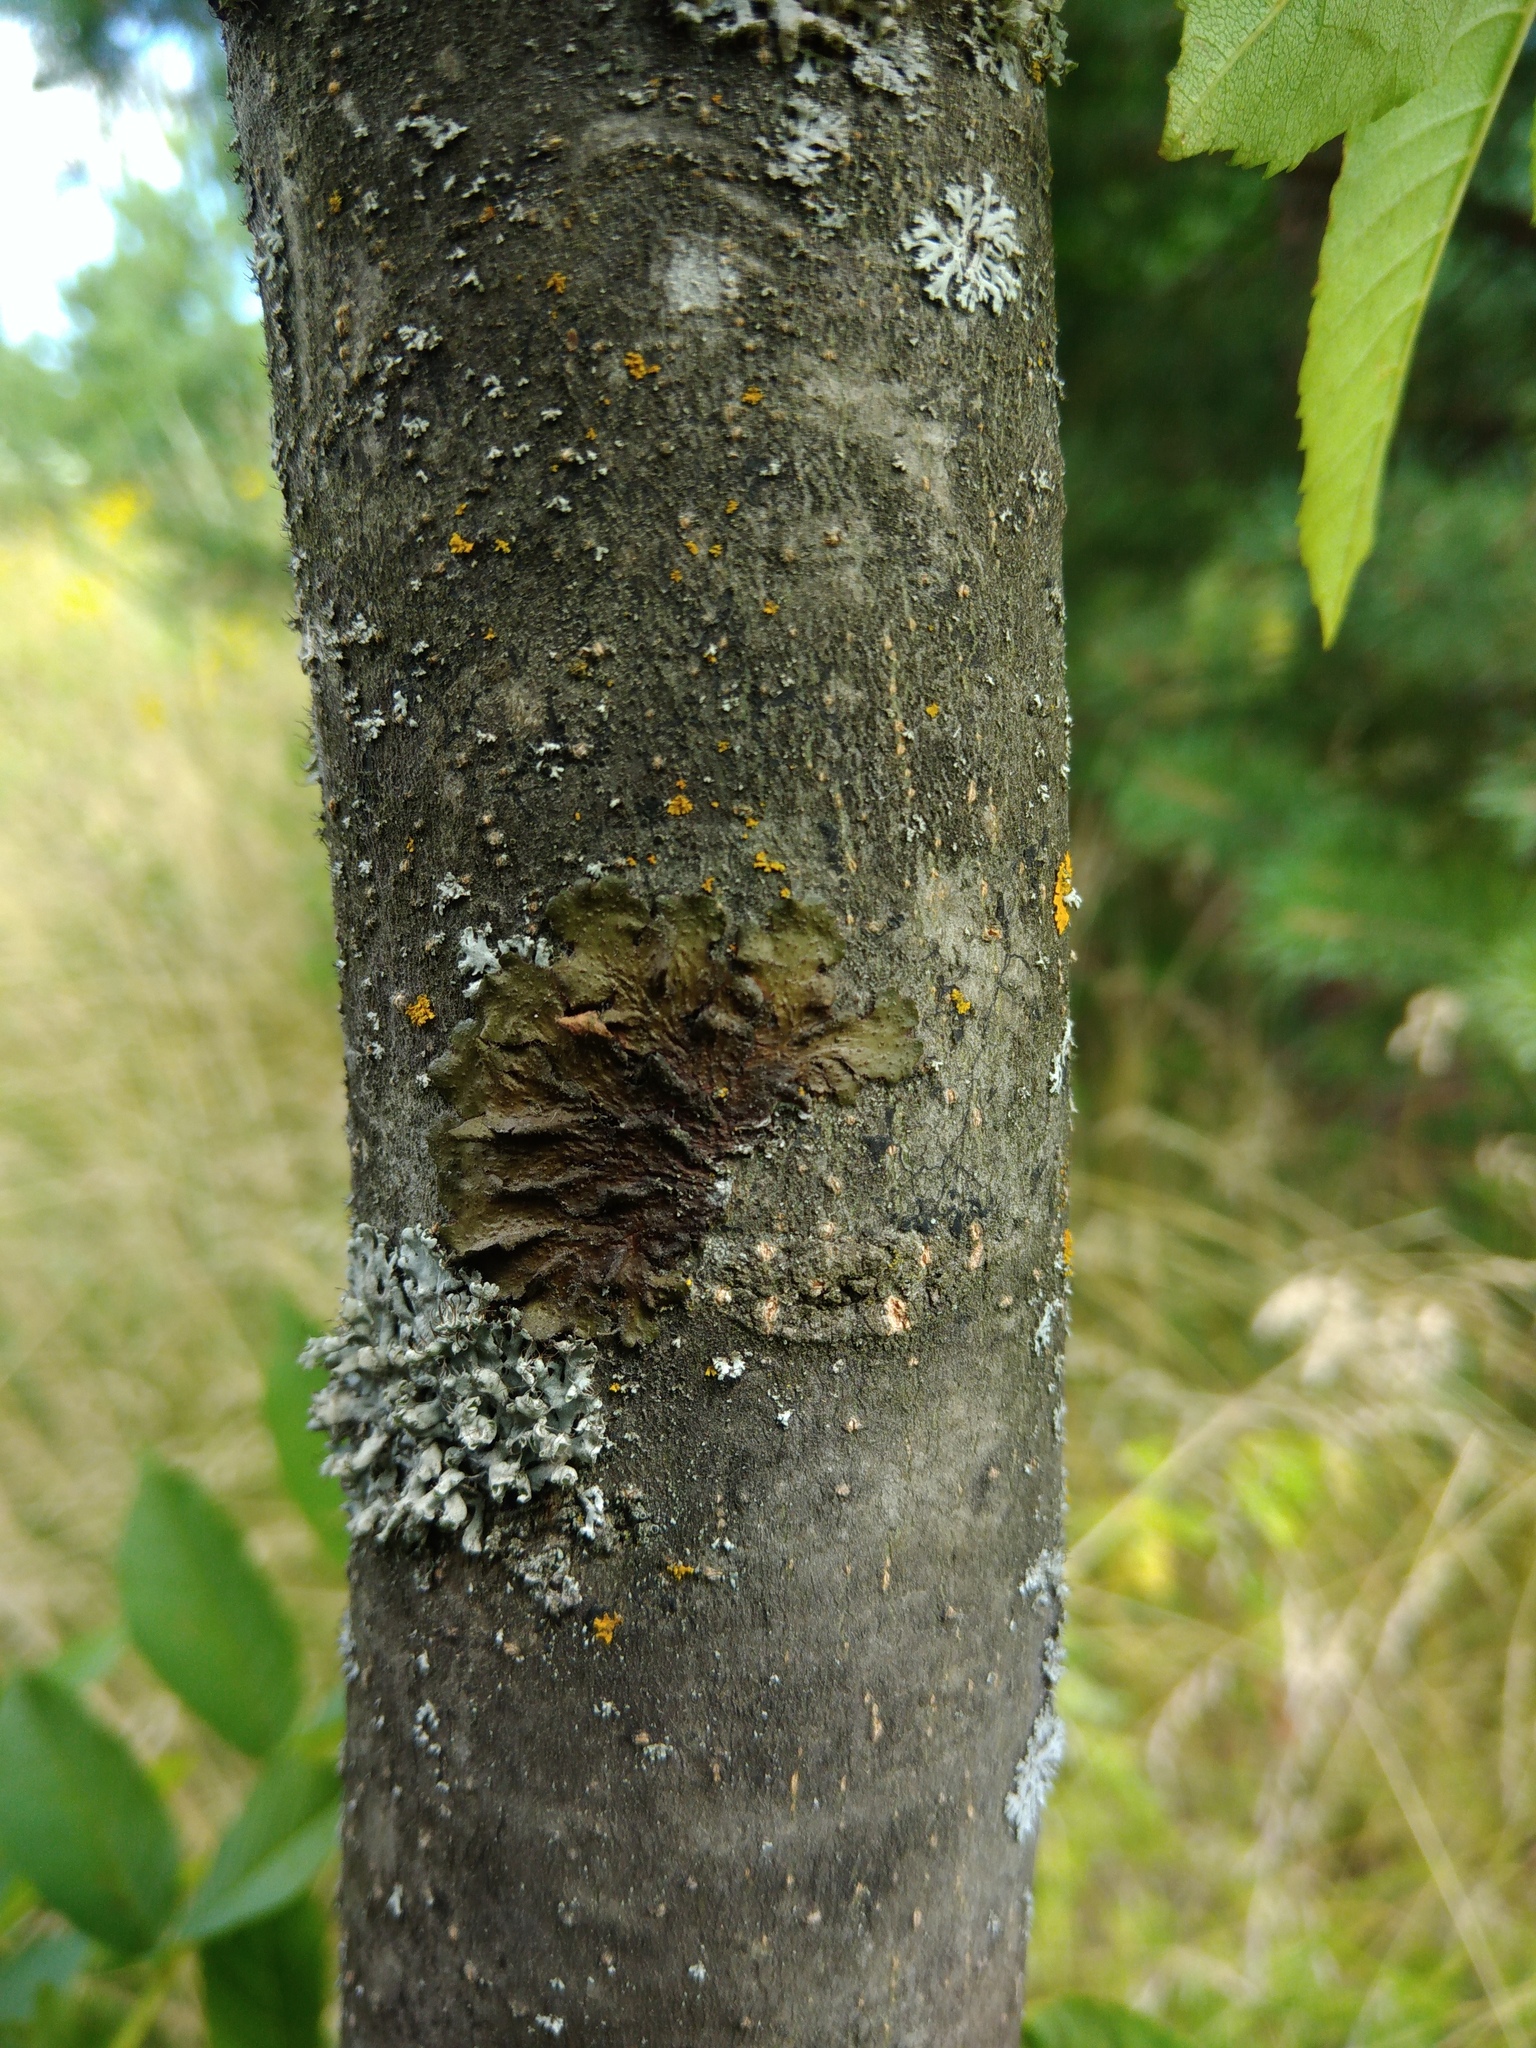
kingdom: Fungi
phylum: Ascomycota
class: Lecanoromycetes
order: Lecanorales
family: Parmeliaceae
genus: Melanohalea
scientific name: Melanohalea exasperata
